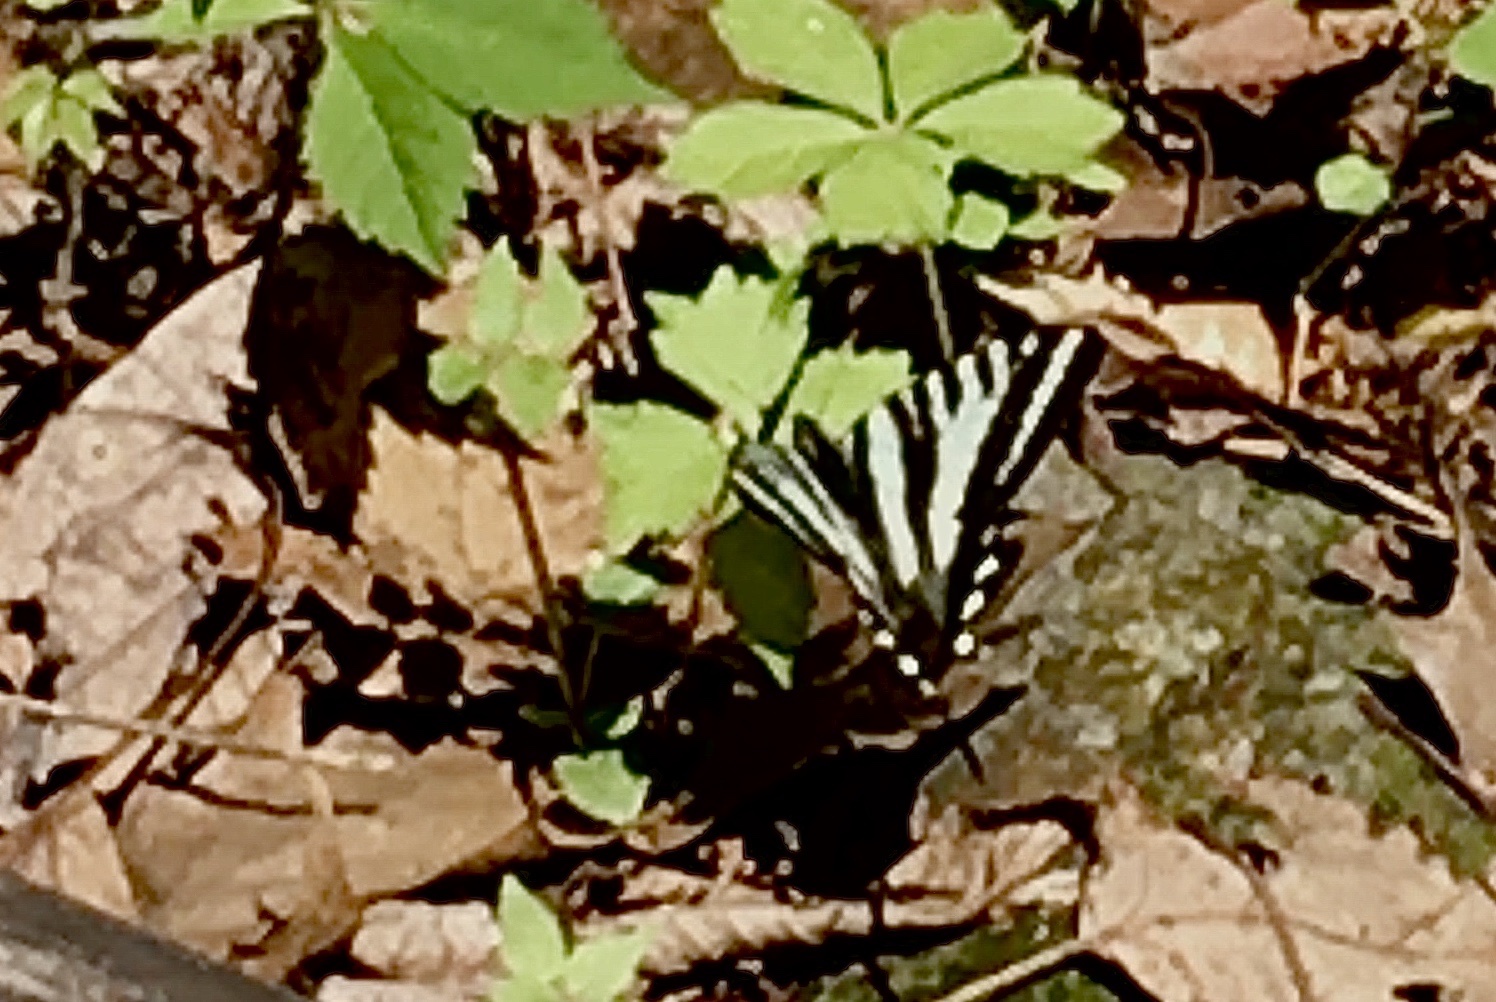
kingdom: Animalia
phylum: Arthropoda
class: Insecta
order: Lepidoptera
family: Papilionidae
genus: Protographium
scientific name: Protographium marcellus
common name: Zebra swallowtail
